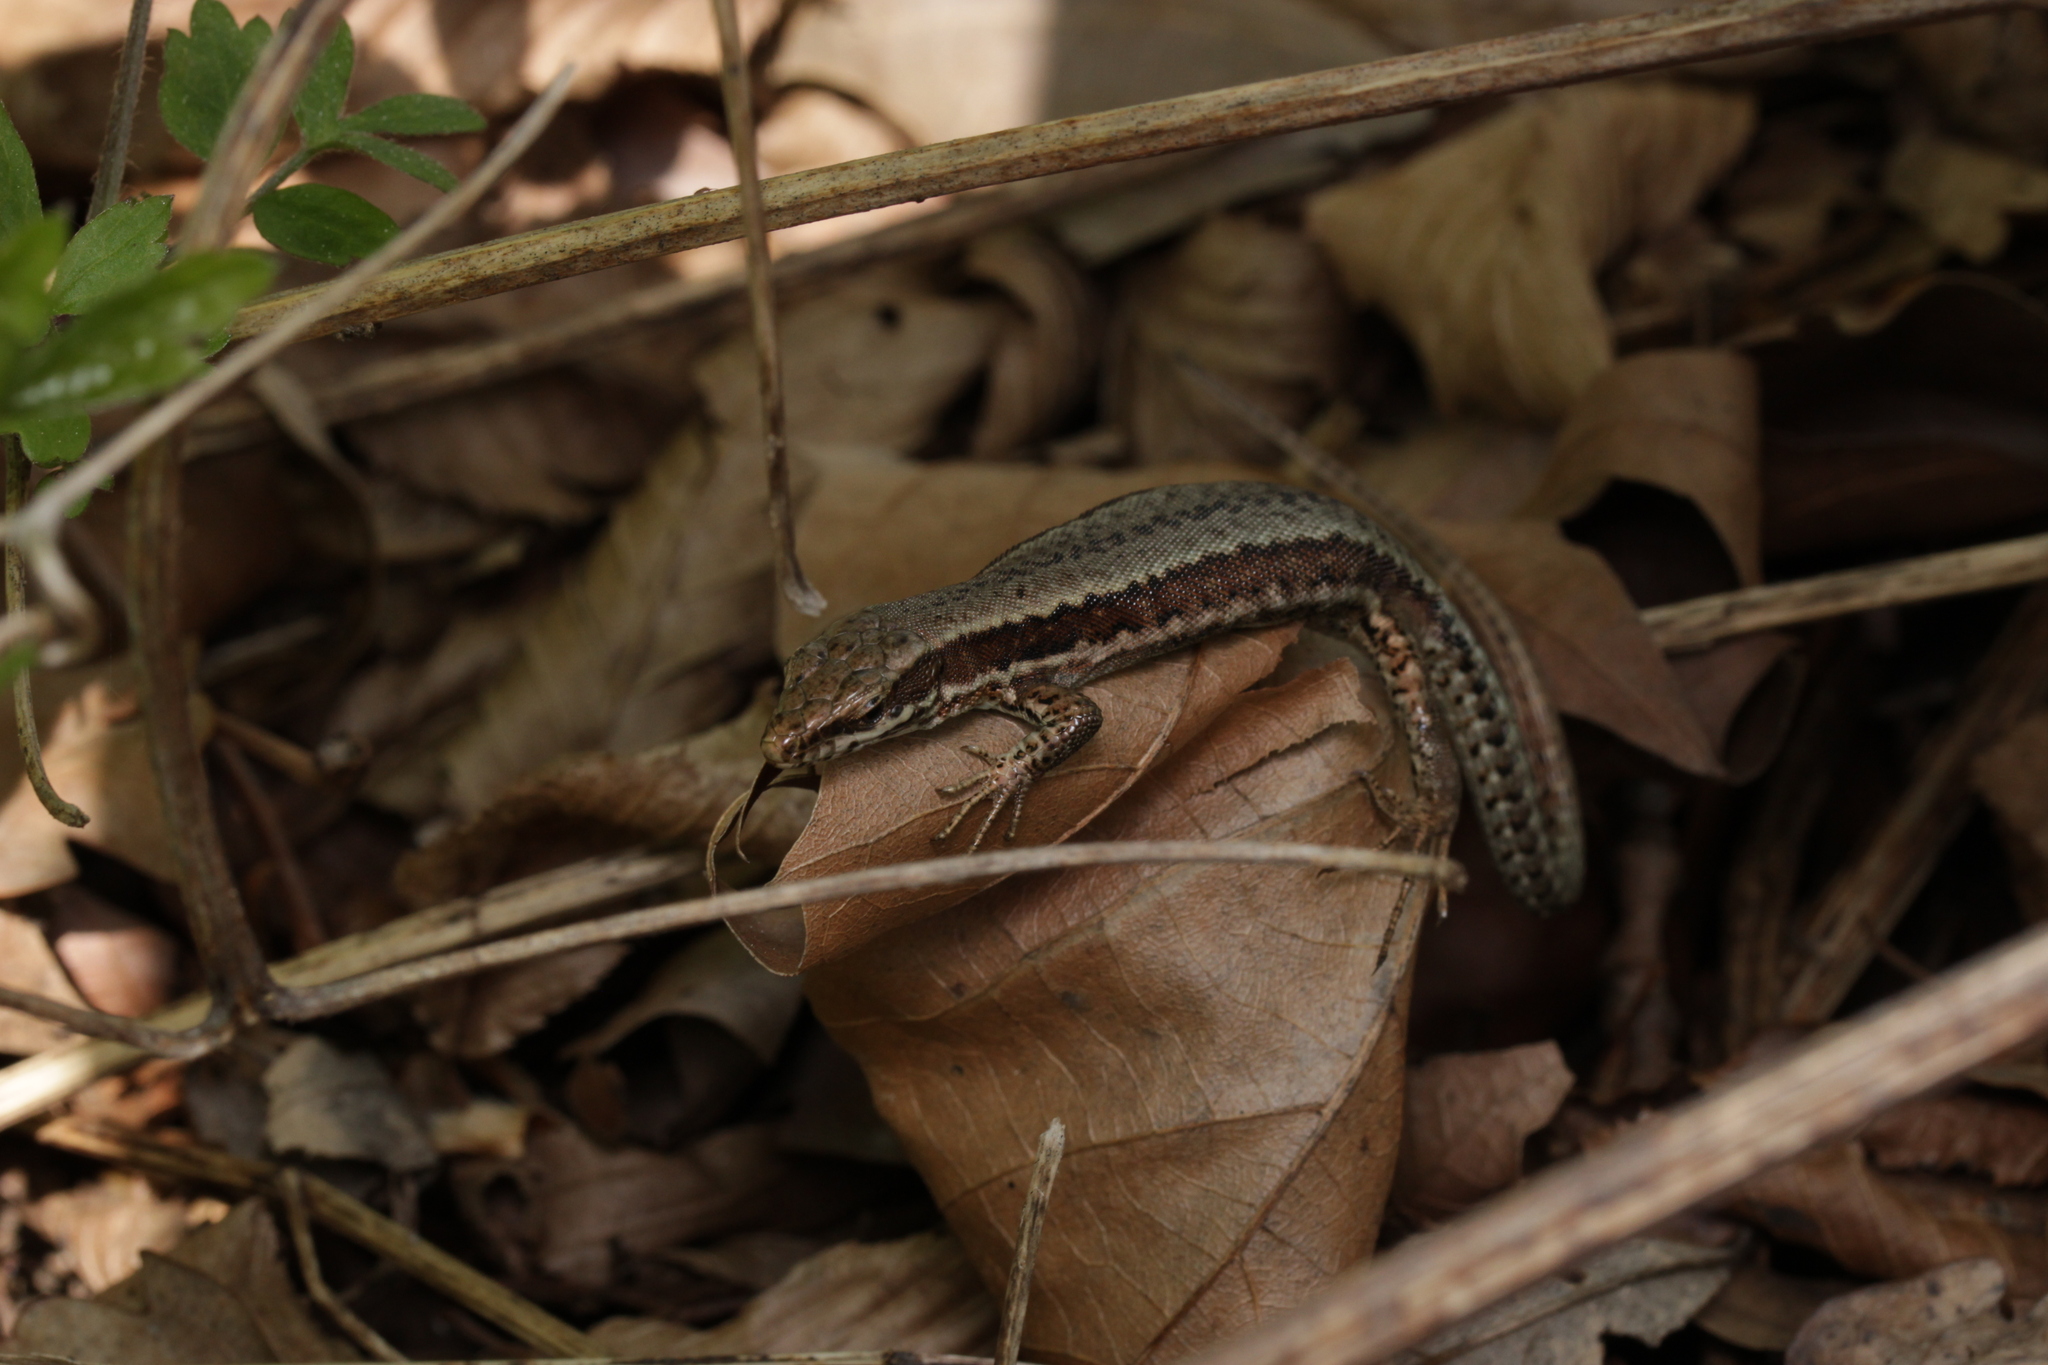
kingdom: Animalia
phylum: Chordata
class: Squamata
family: Lacertidae
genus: Podarcis
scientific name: Podarcis muralis
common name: Common wall lizard
